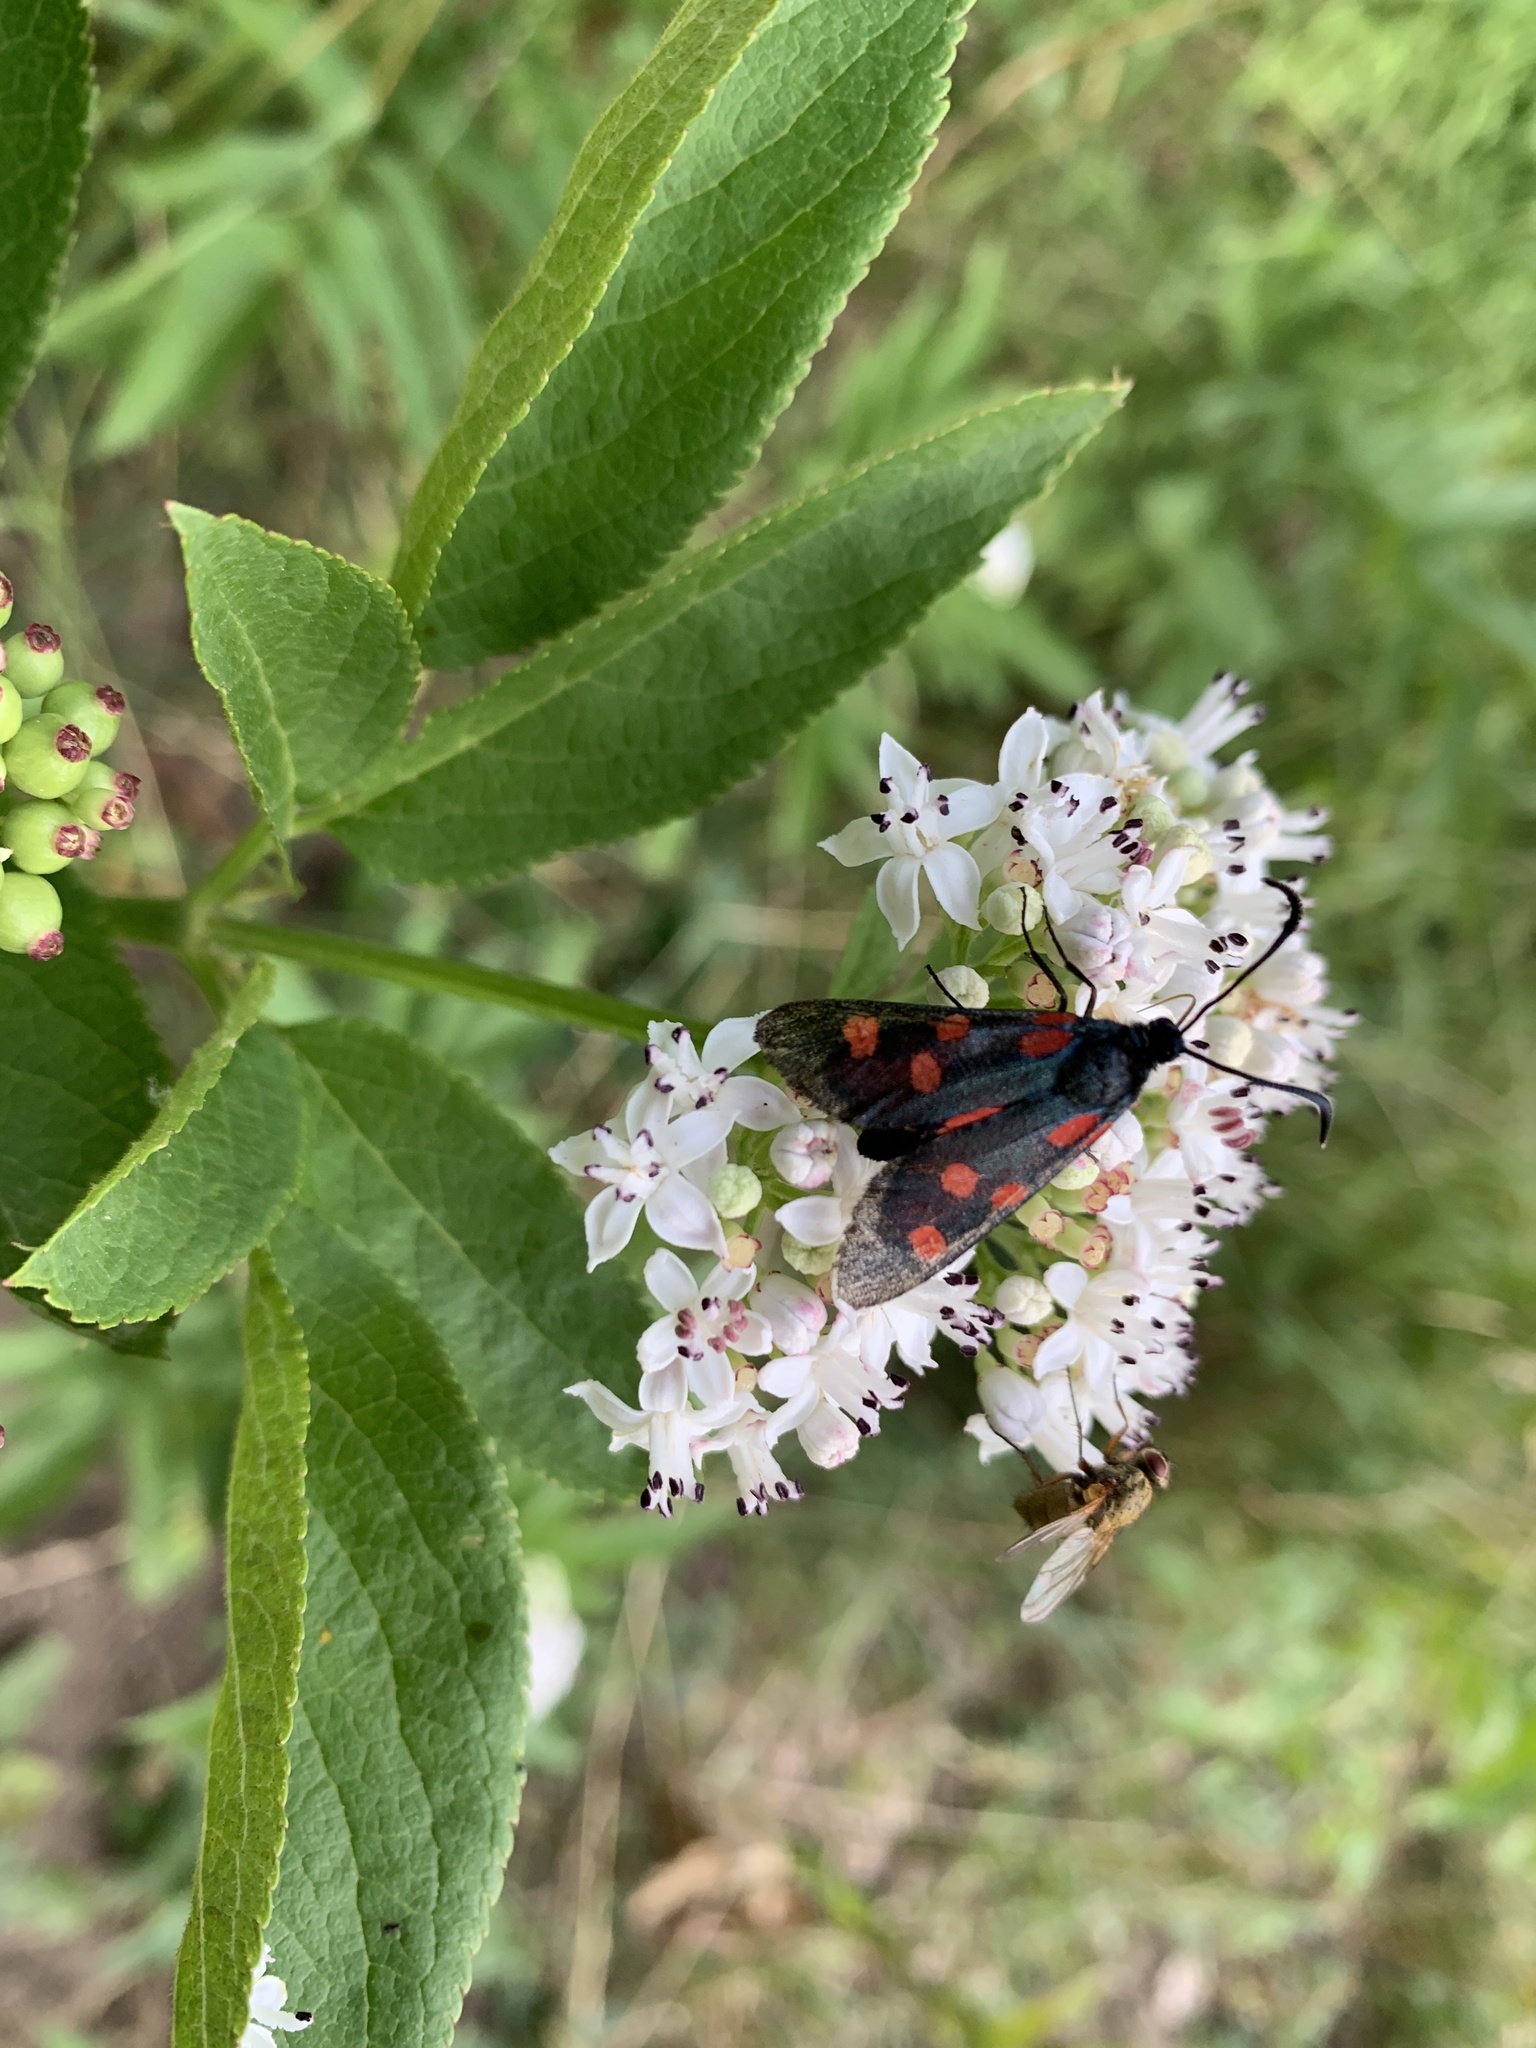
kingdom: Animalia
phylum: Arthropoda
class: Insecta
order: Lepidoptera
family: Zygaenidae
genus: Zygaena
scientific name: Zygaena angelicae
